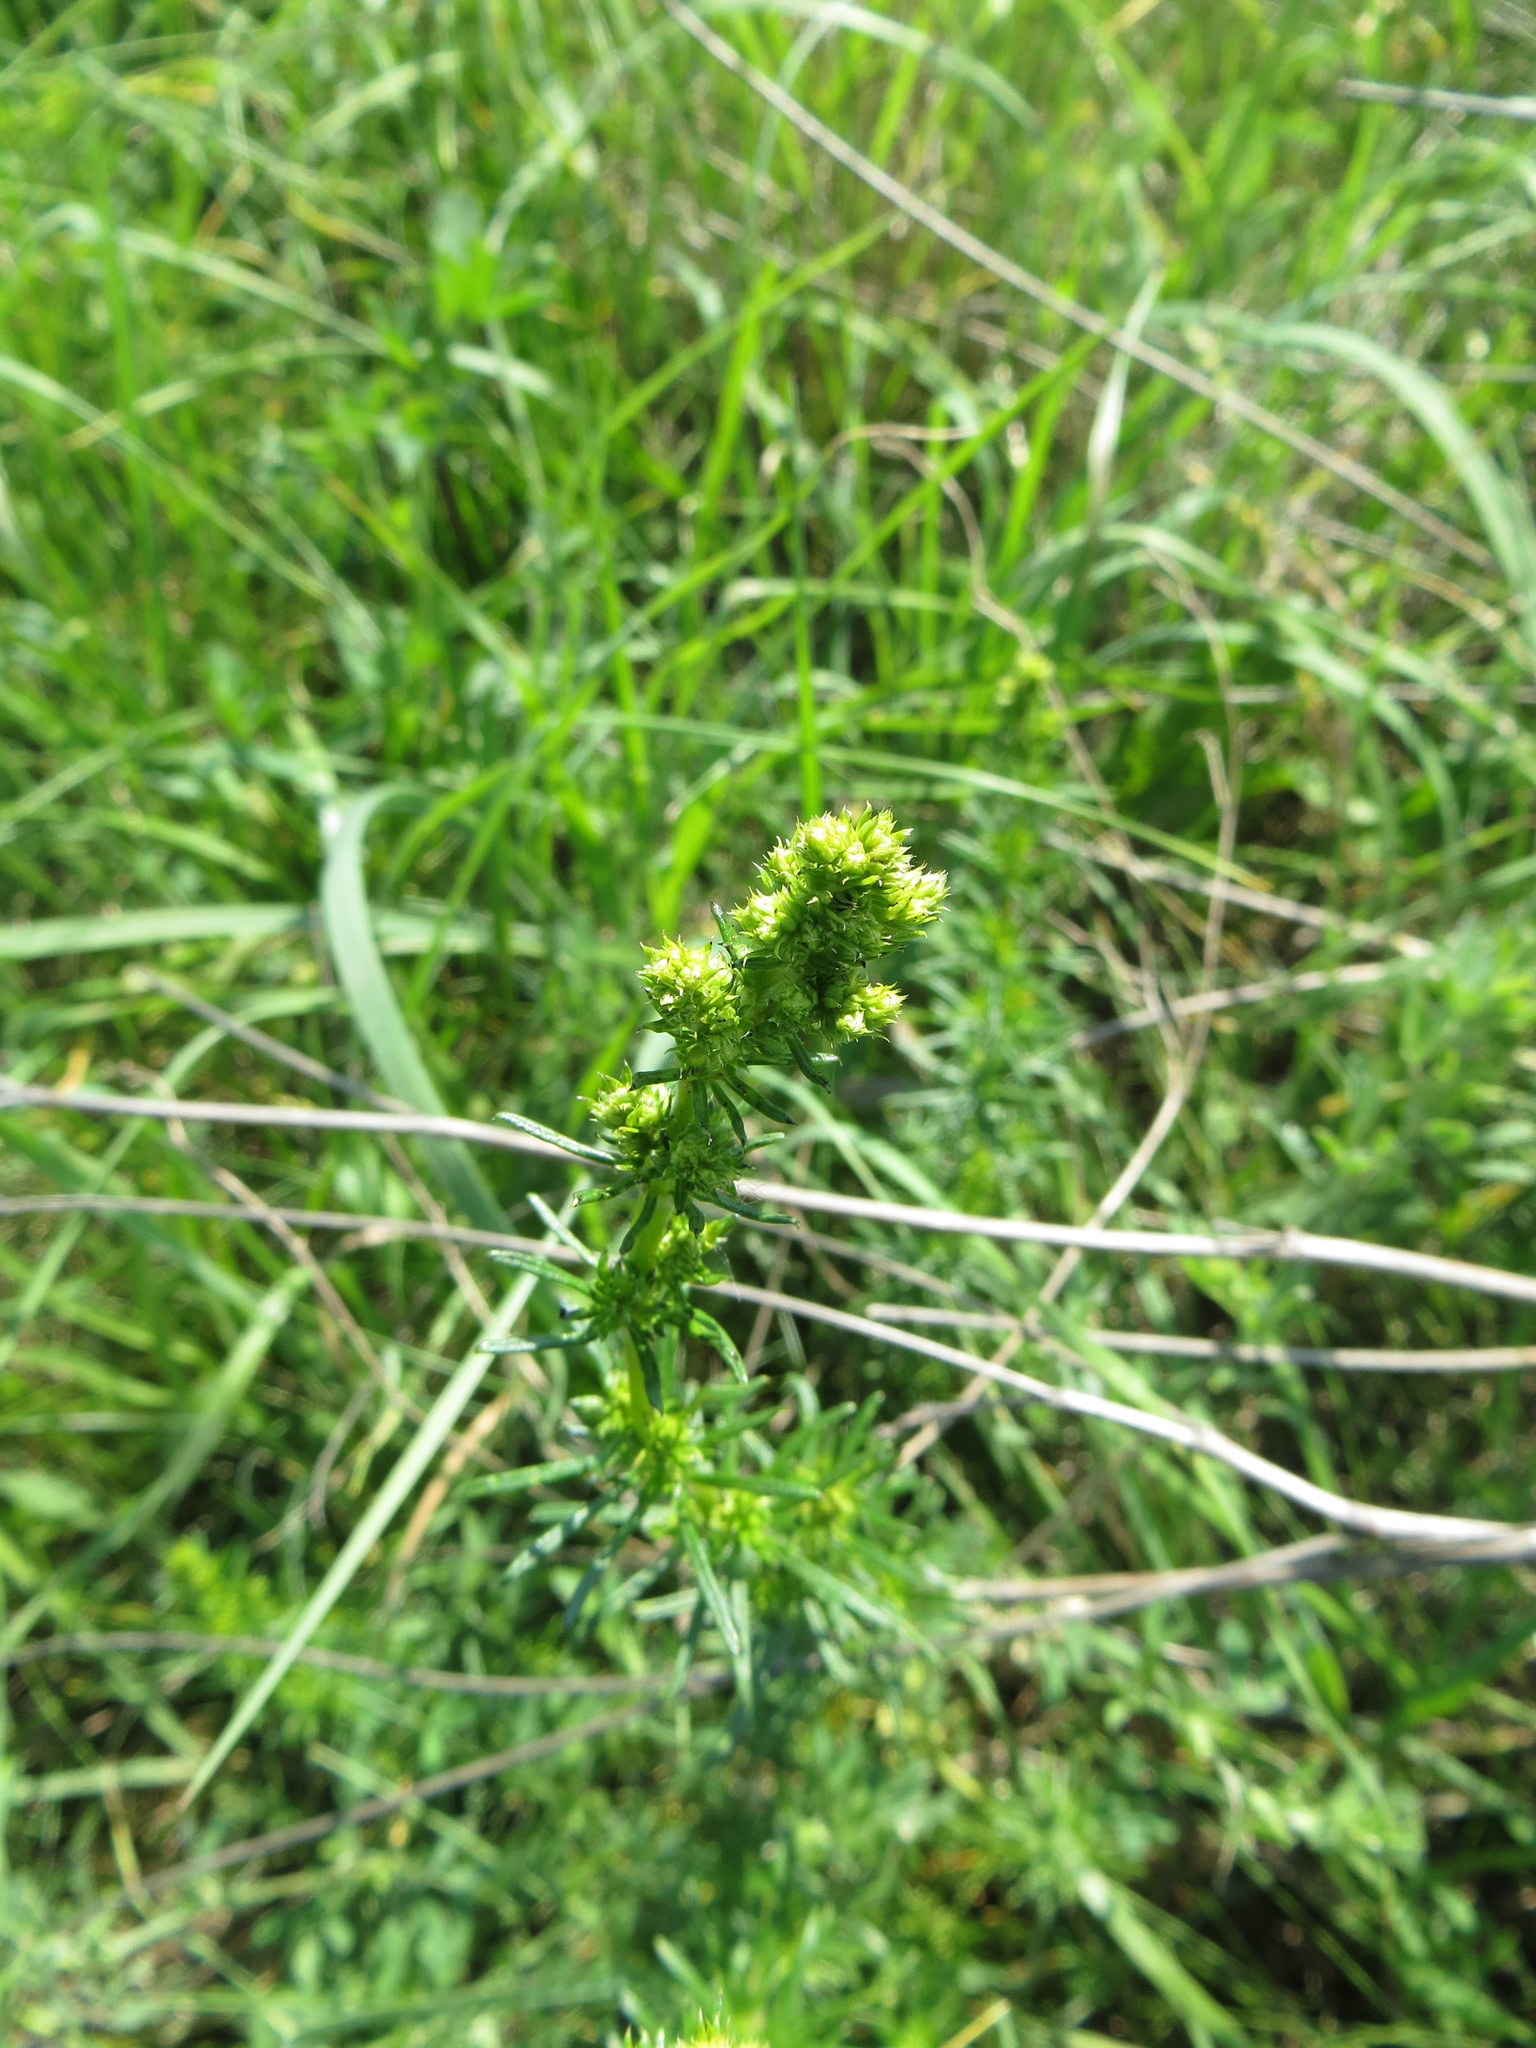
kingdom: Plantae
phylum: Tracheophyta
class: Magnoliopsida
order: Gentianales
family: Rubiaceae
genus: Galium
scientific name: Galium verum
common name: Lady's bedstraw
